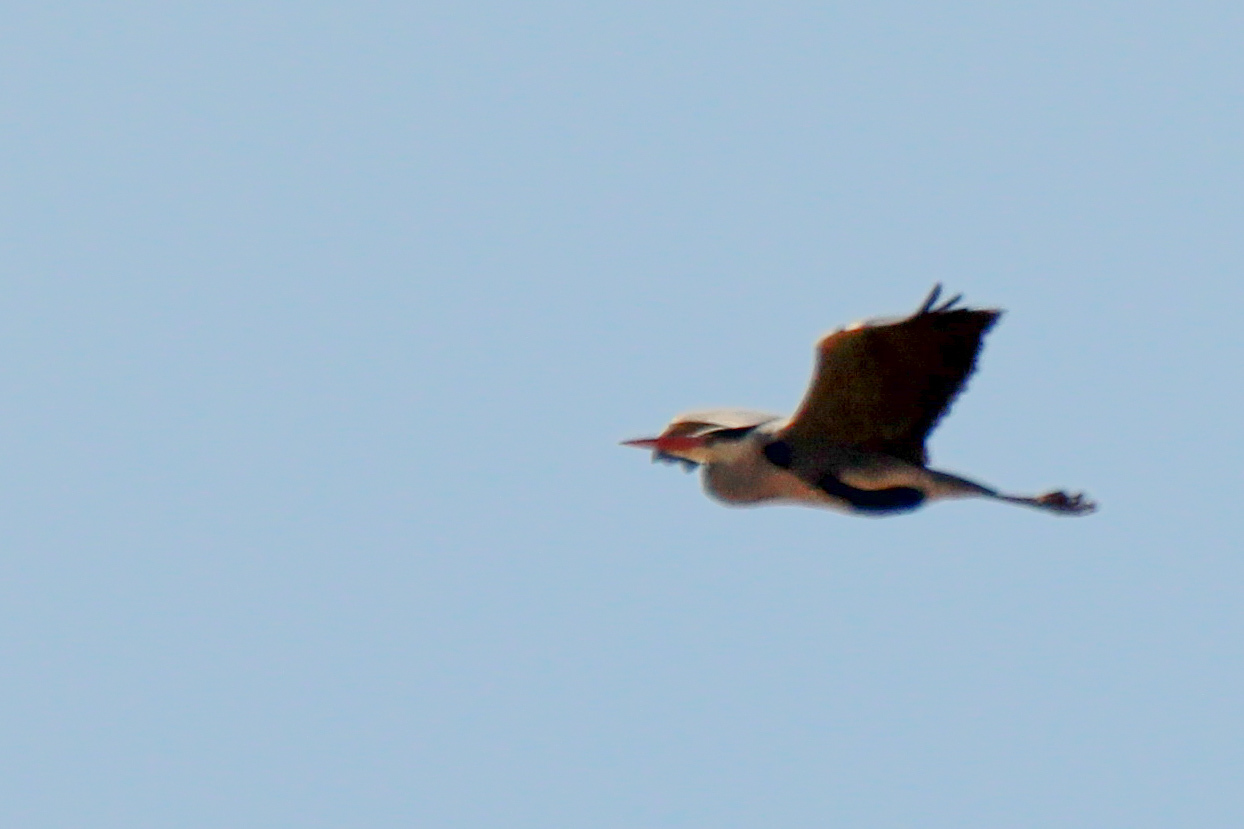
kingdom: Animalia
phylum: Chordata
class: Aves
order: Pelecaniformes
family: Ardeidae
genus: Ardea
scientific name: Ardea cinerea
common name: Grey heron
